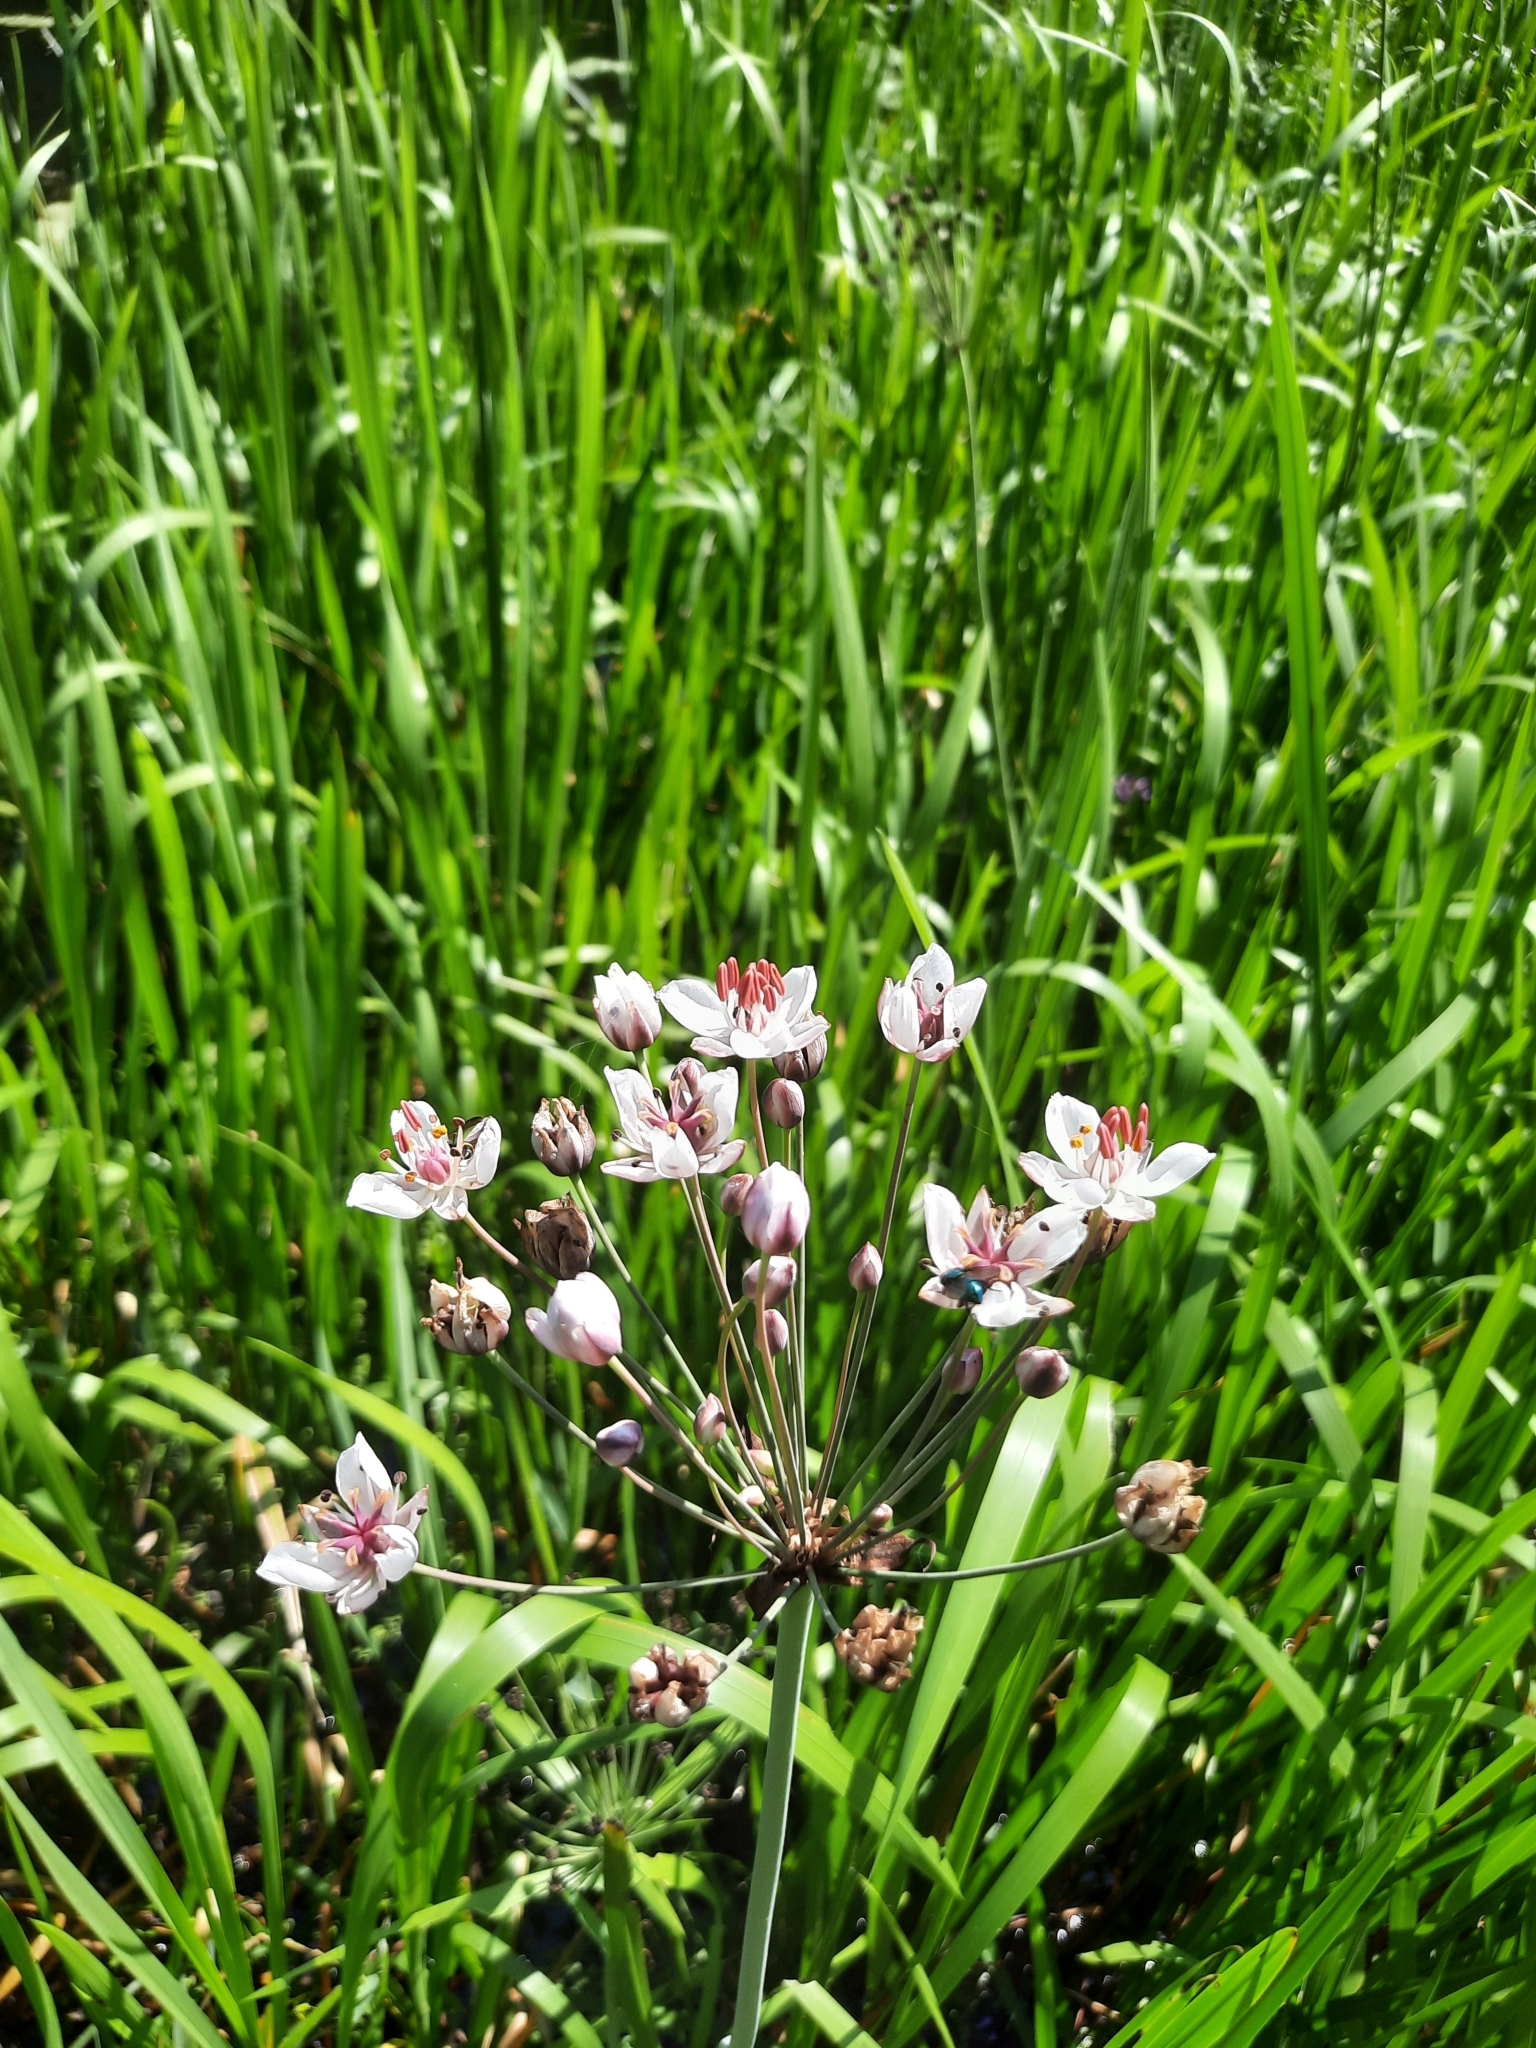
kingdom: Plantae
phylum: Tracheophyta
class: Liliopsida
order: Alismatales
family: Butomaceae
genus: Butomus
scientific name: Butomus umbellatus
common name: Flowering-rush
